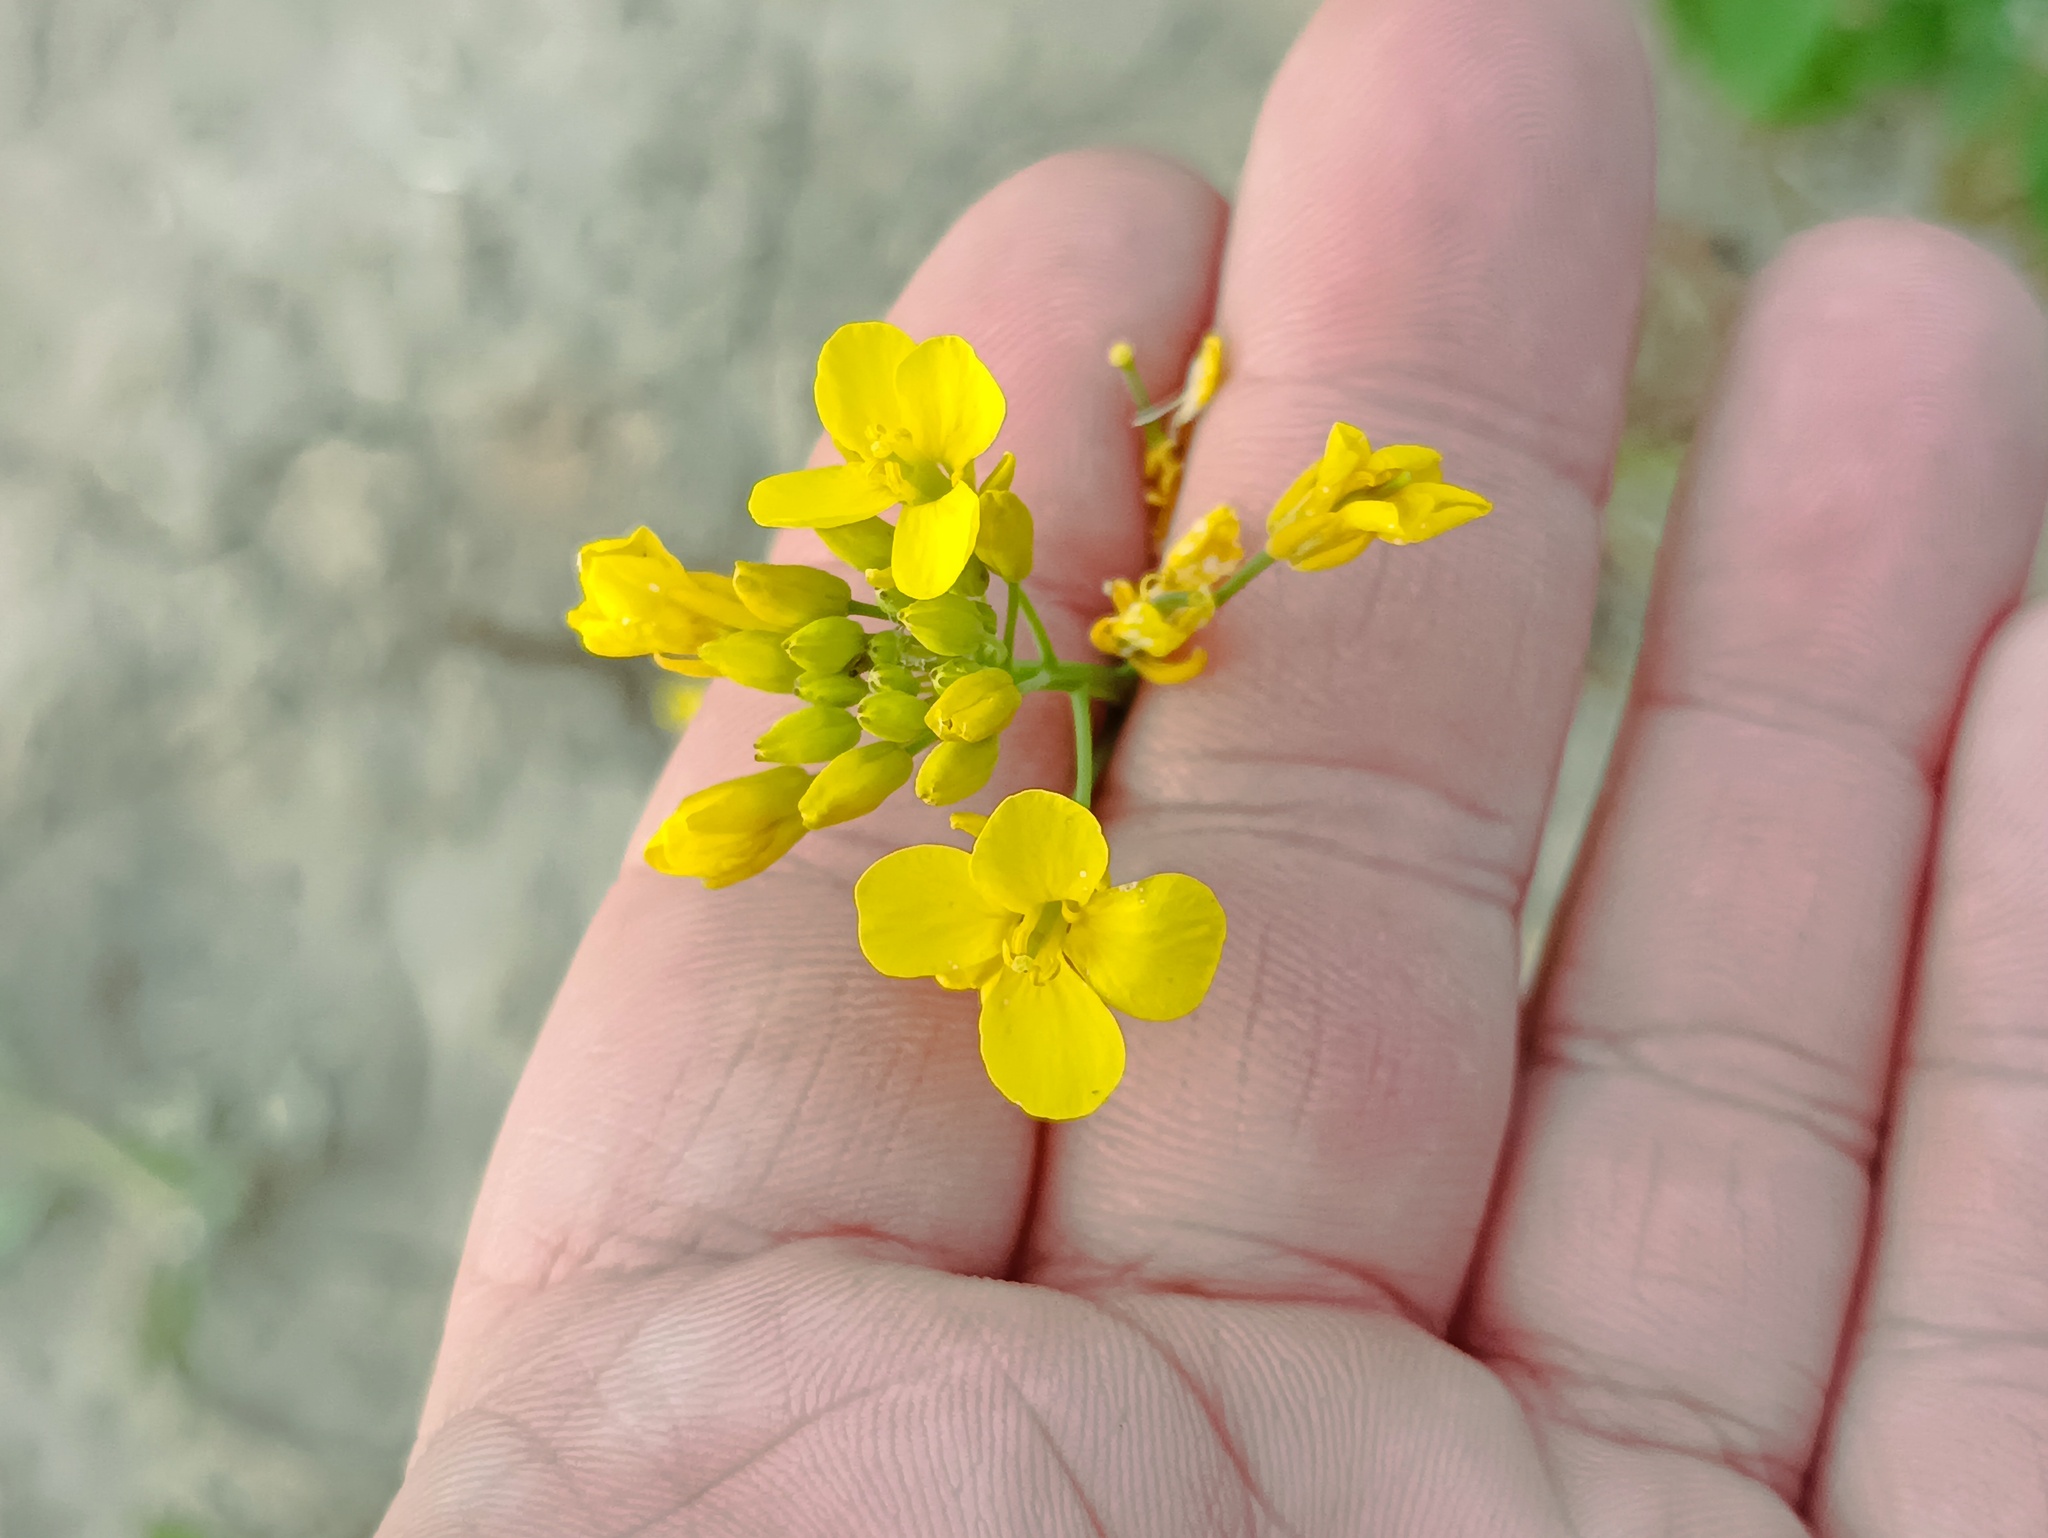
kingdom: Plantae
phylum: Tracheophyta
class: Magnoliopsida
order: Brassicales
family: Brassicaceae
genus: Brassica
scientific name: Brassica rapa
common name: Field mustard
